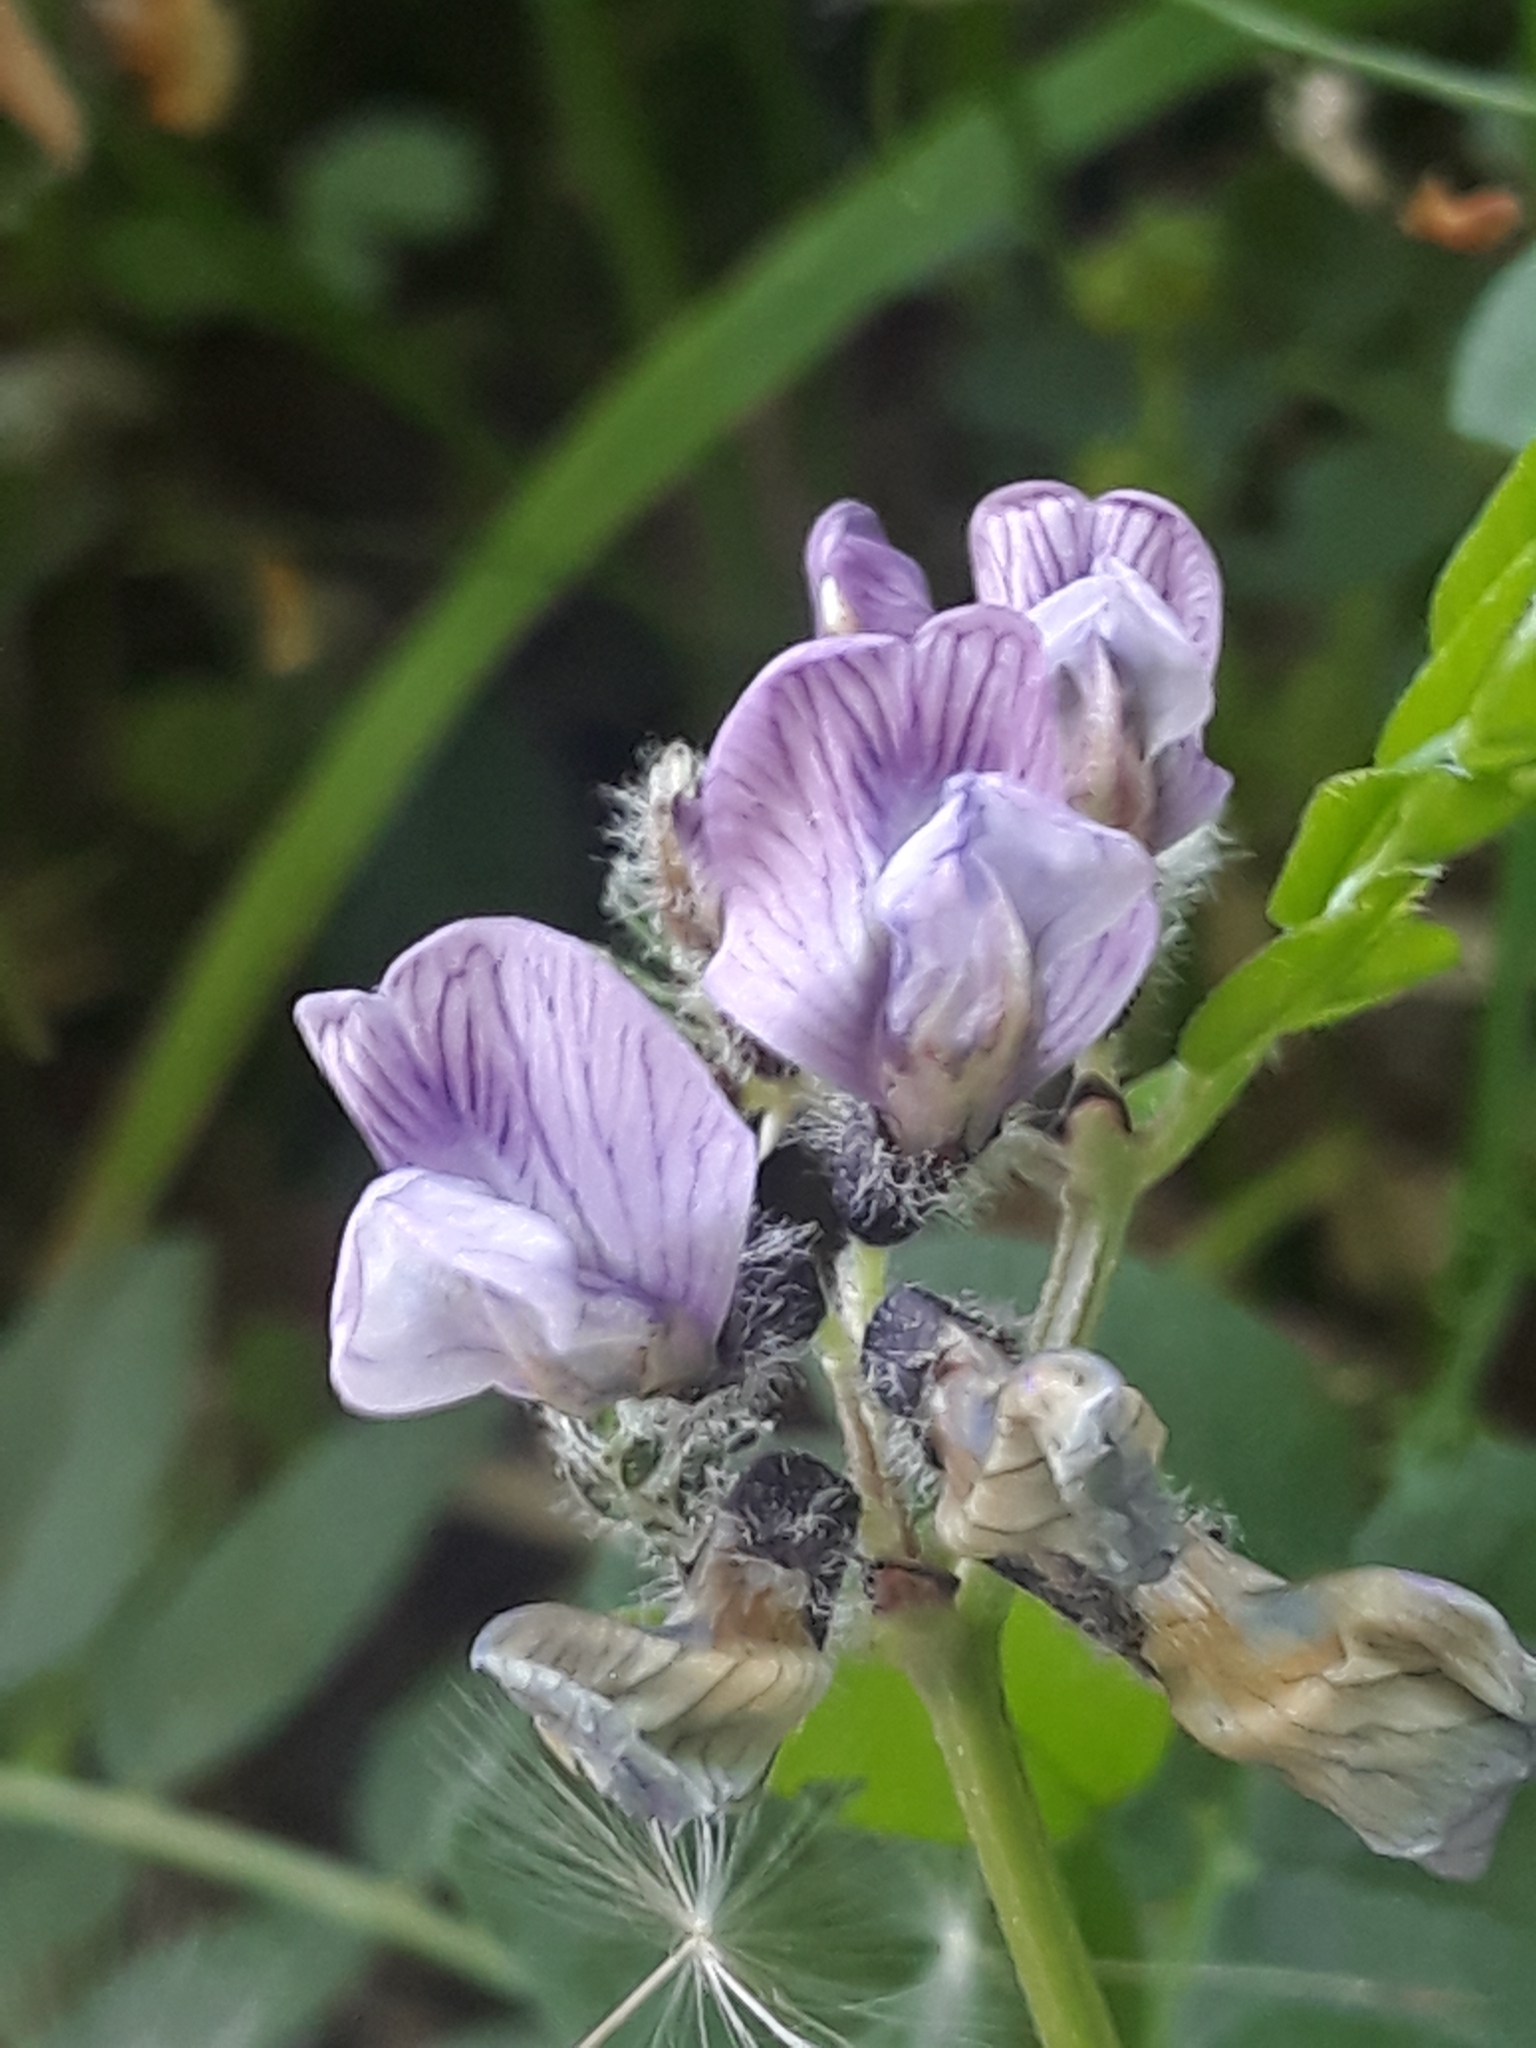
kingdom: Plantae
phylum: Tracheophyta
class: Magnoliopsida
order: Fabales
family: Fabaceae
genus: Vicia
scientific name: Vicia sepium
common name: Bush vetch
